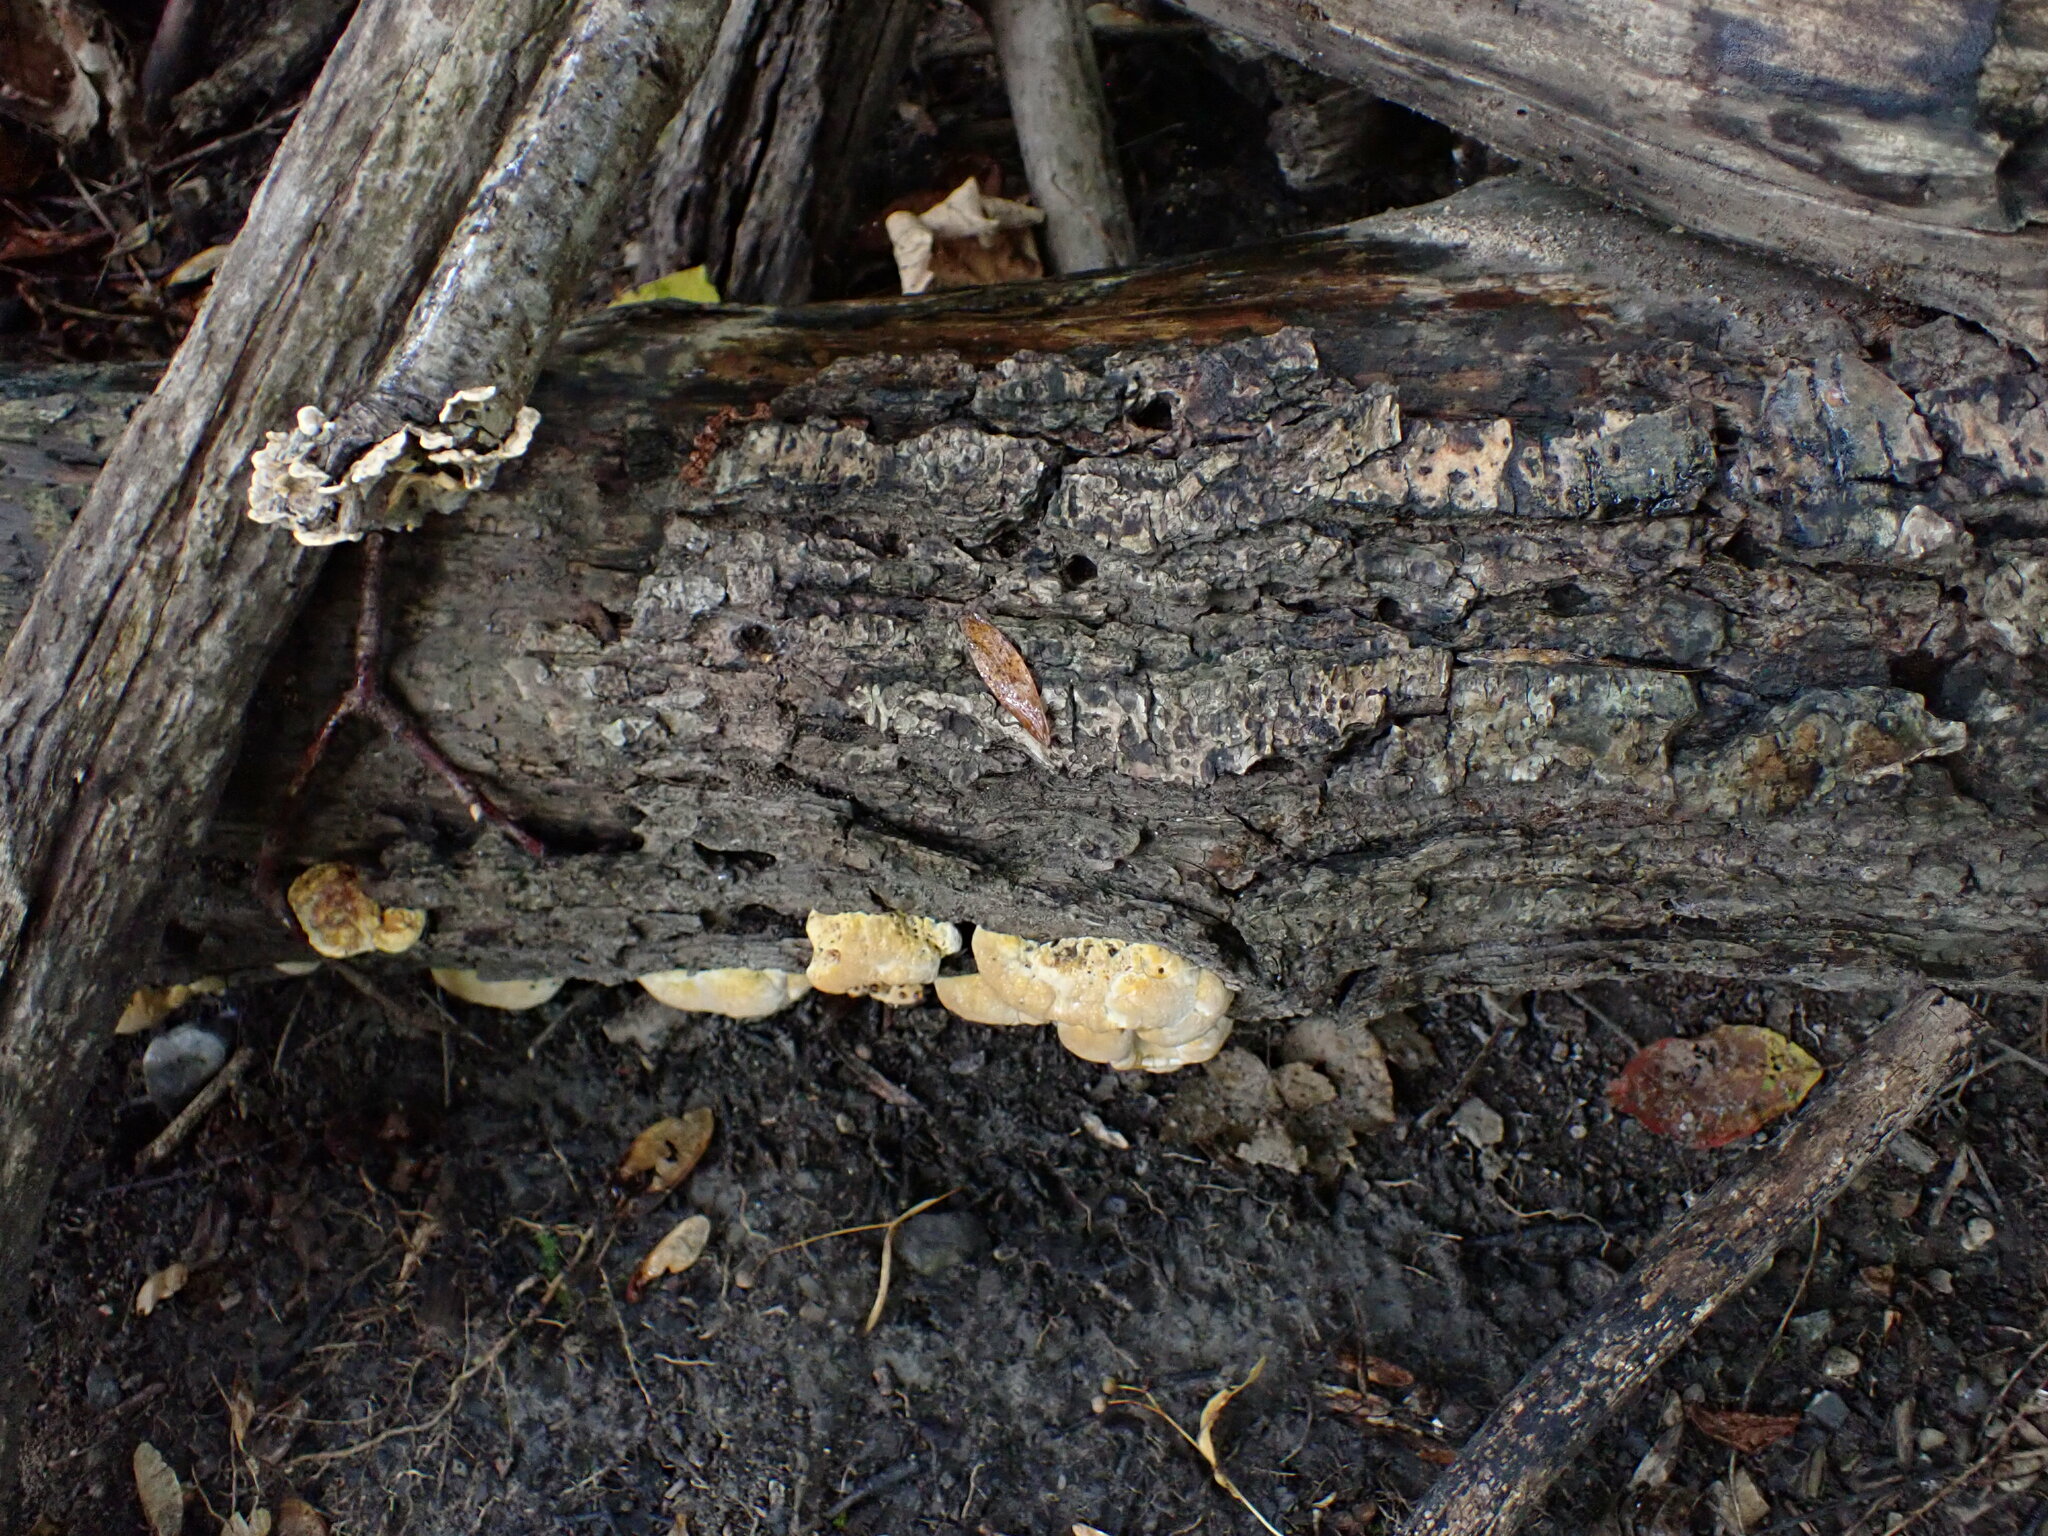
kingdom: Fungi
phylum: Basidiomycota
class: Agaricomycetes
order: Hymenochaetales
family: Hymenochaetaceae
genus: Pseudoinonotus
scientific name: Pseudoinonotus dryadeus
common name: Oak bracket
